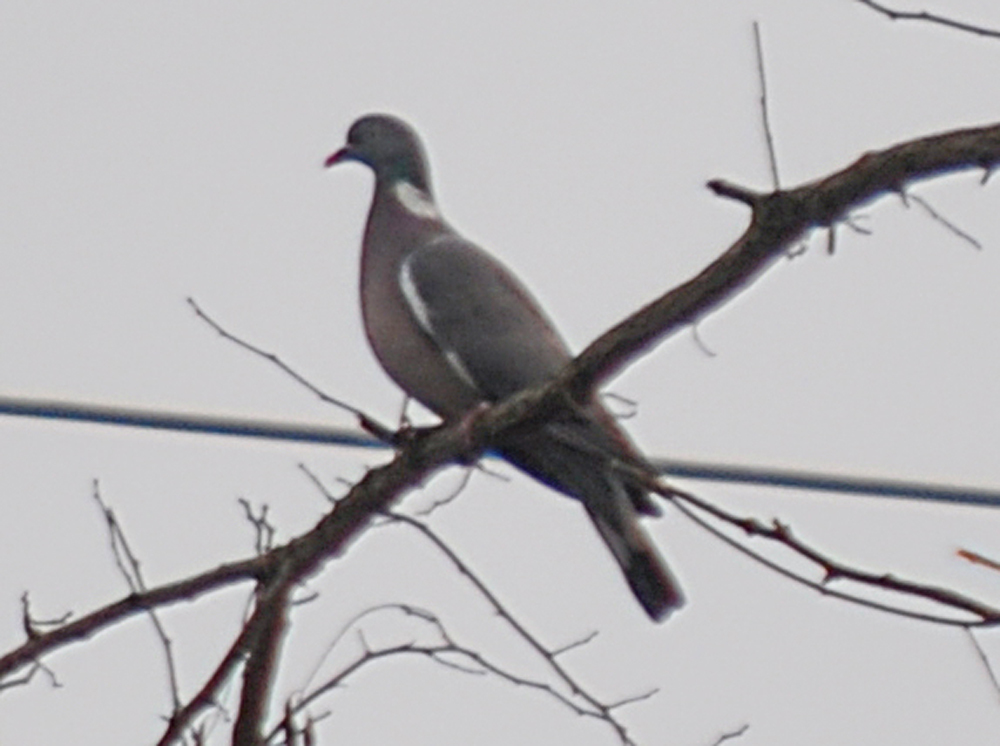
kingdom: Animalia
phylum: Chordata
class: Aves
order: Columbiformes
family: Columbidae
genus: Columba
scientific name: Columba palumbus
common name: Common wood pigeon
